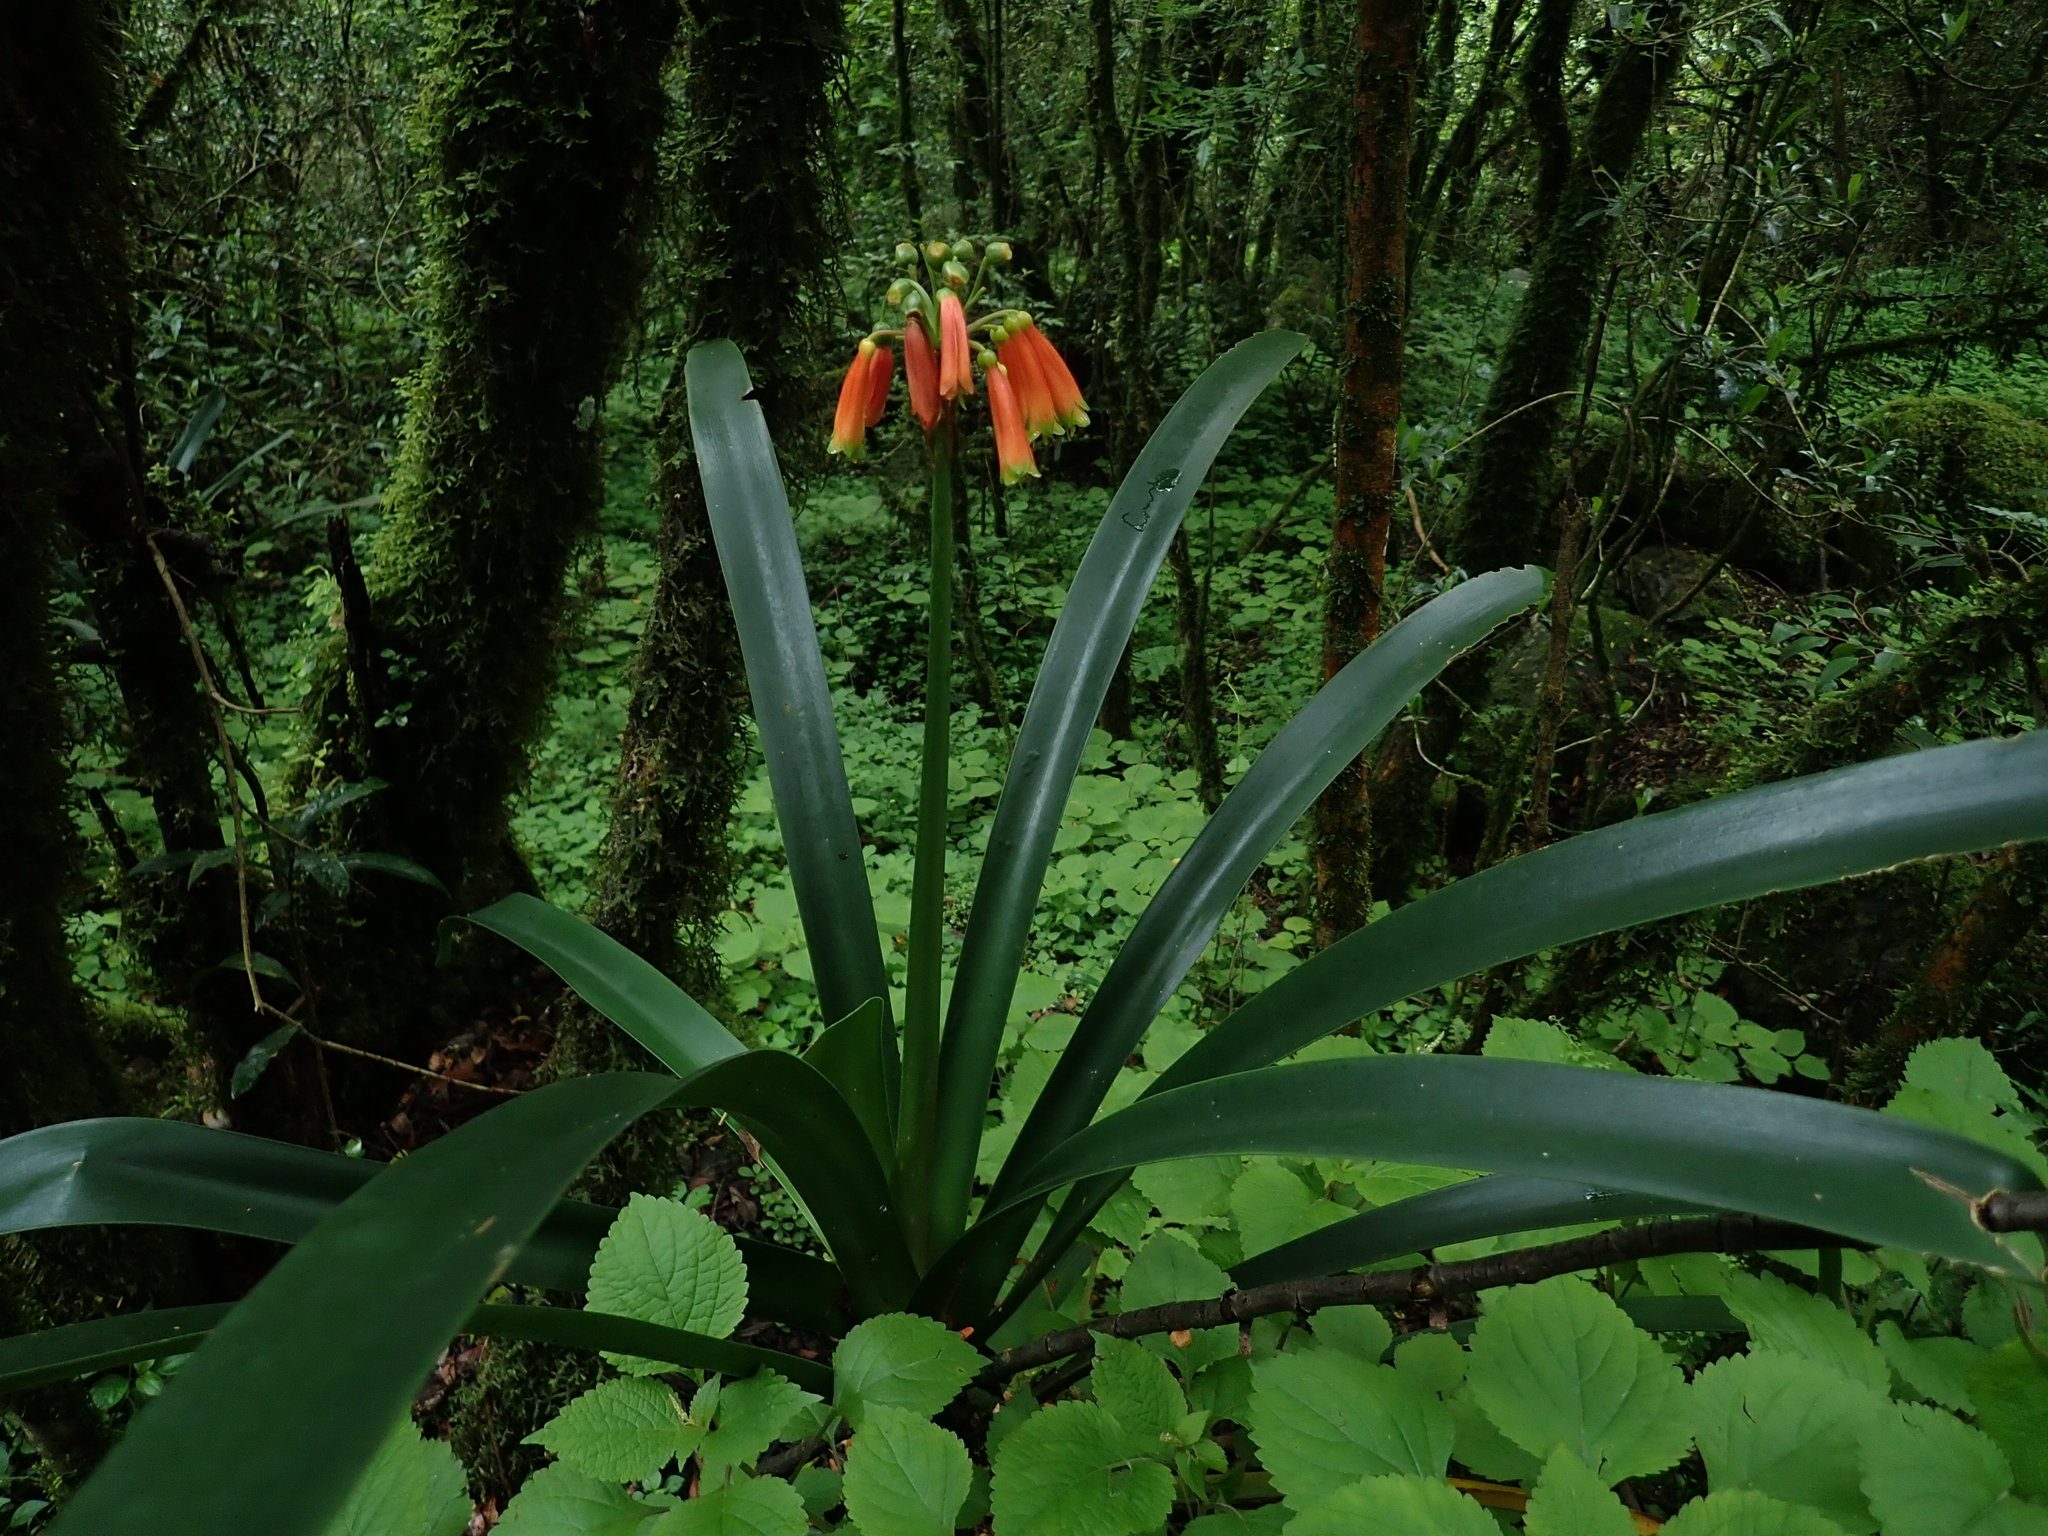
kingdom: Plantae
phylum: Tracheophyta
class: Liliopsida
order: Asparagales
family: Amaryllidaceae
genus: Clivia
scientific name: Clivia caulescens
